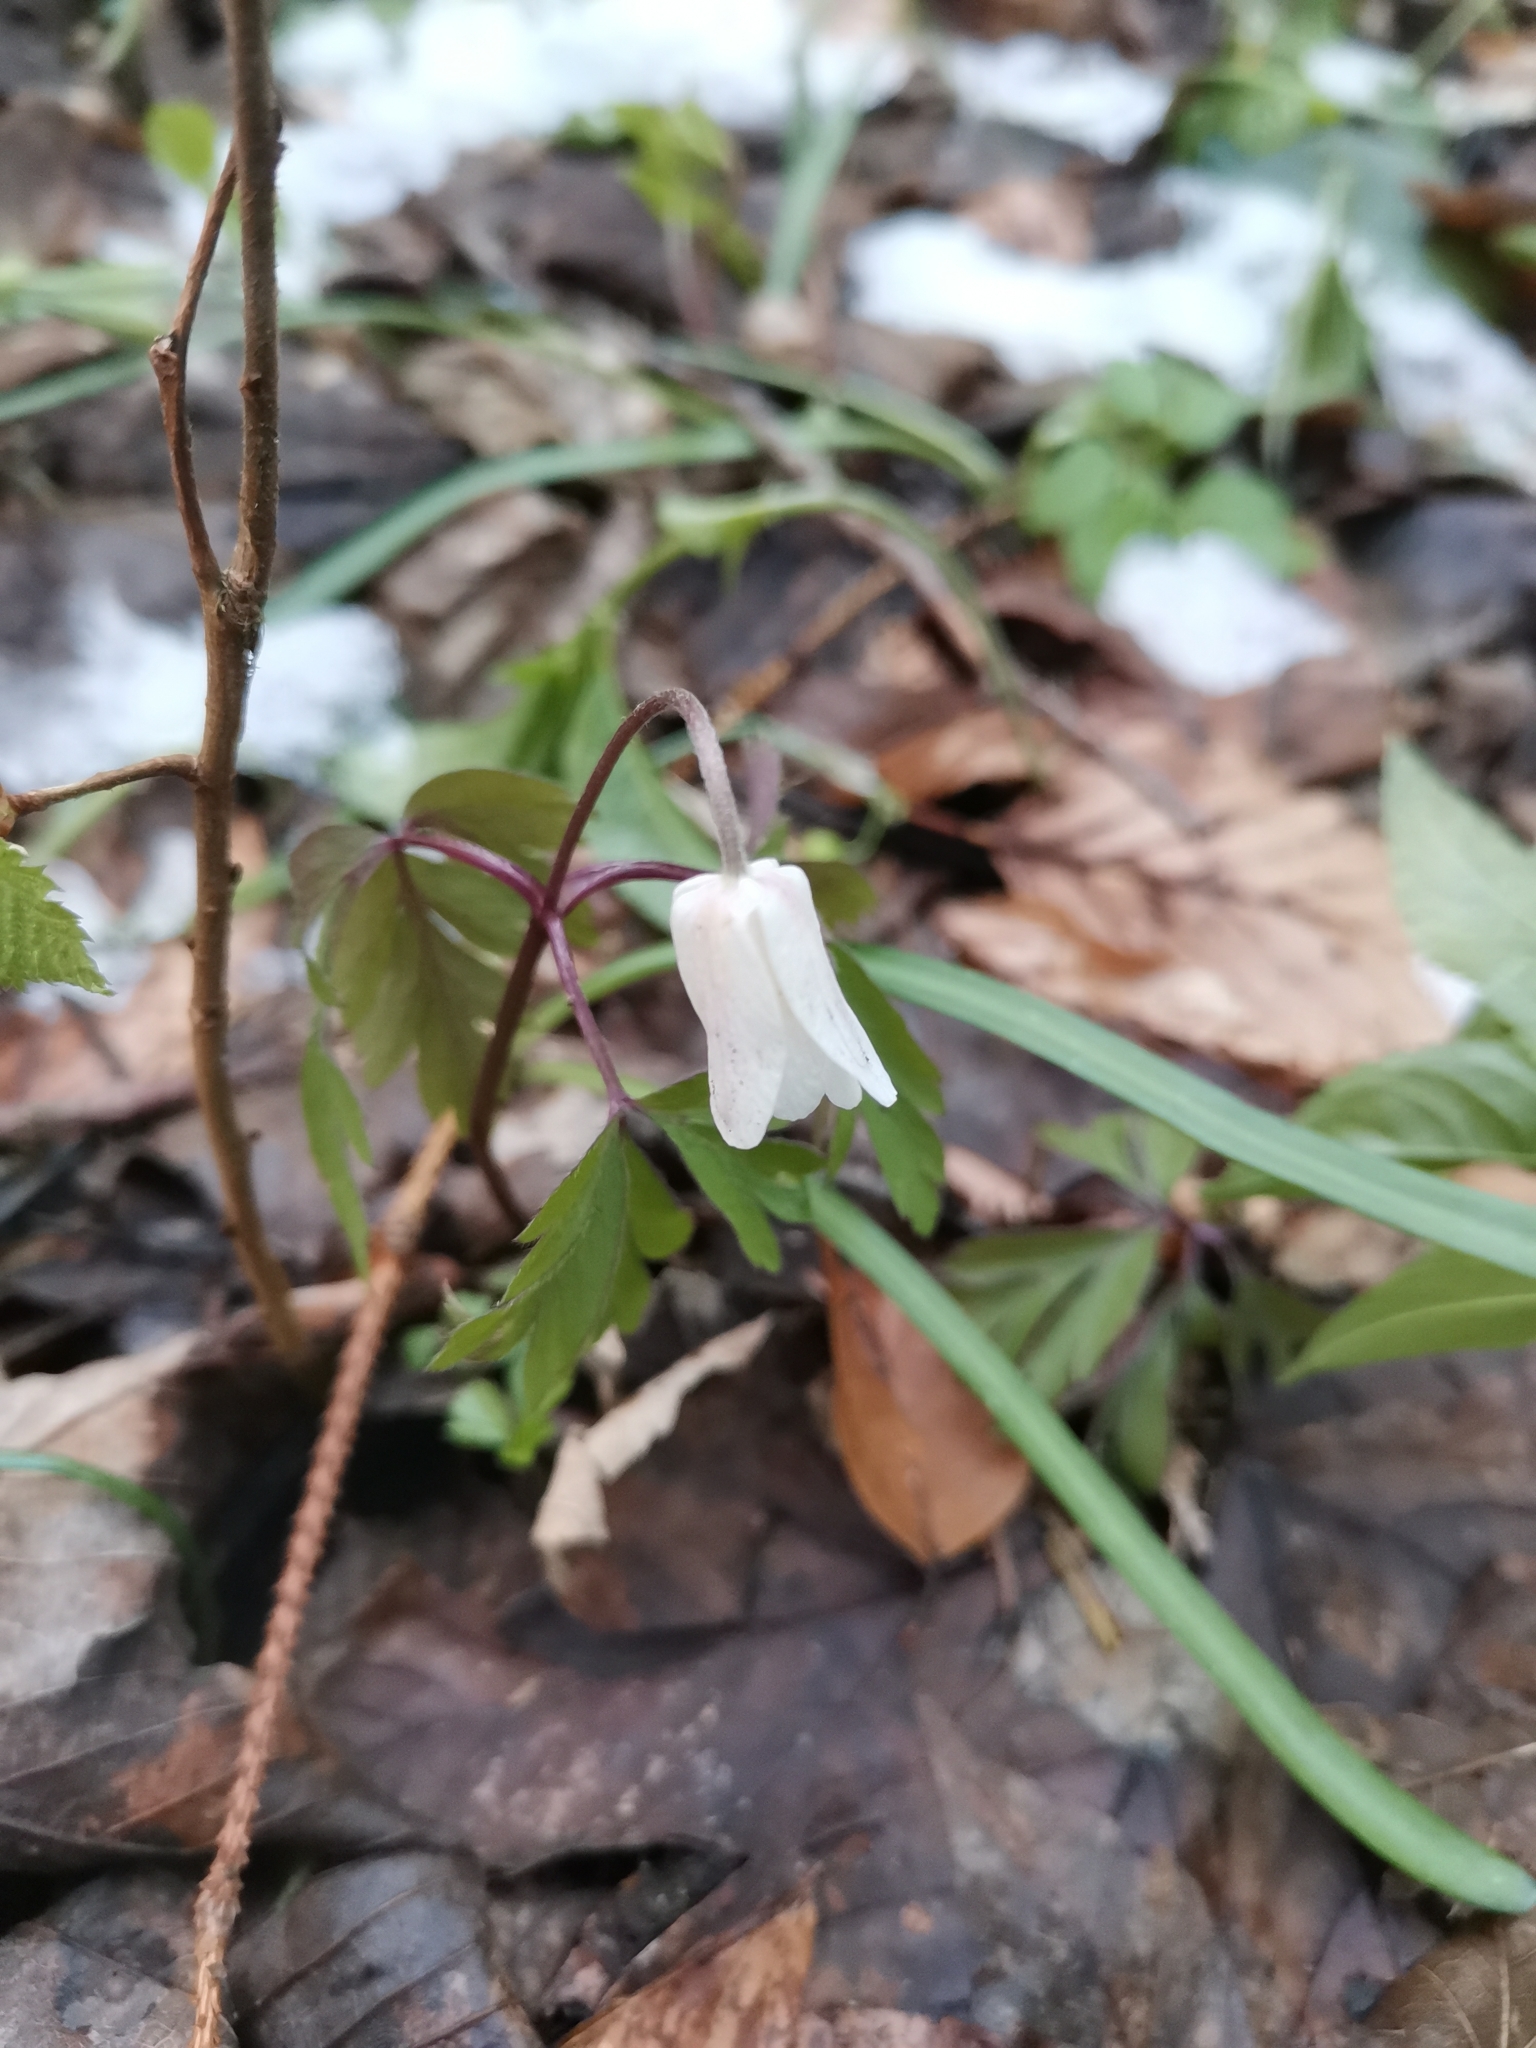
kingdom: Plantae
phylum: Tracheophyta
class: Magnoliopsida
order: Ranunculales
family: Ranunculaceae
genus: Anemone
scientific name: Anemone nemorosa
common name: Wood anemone
